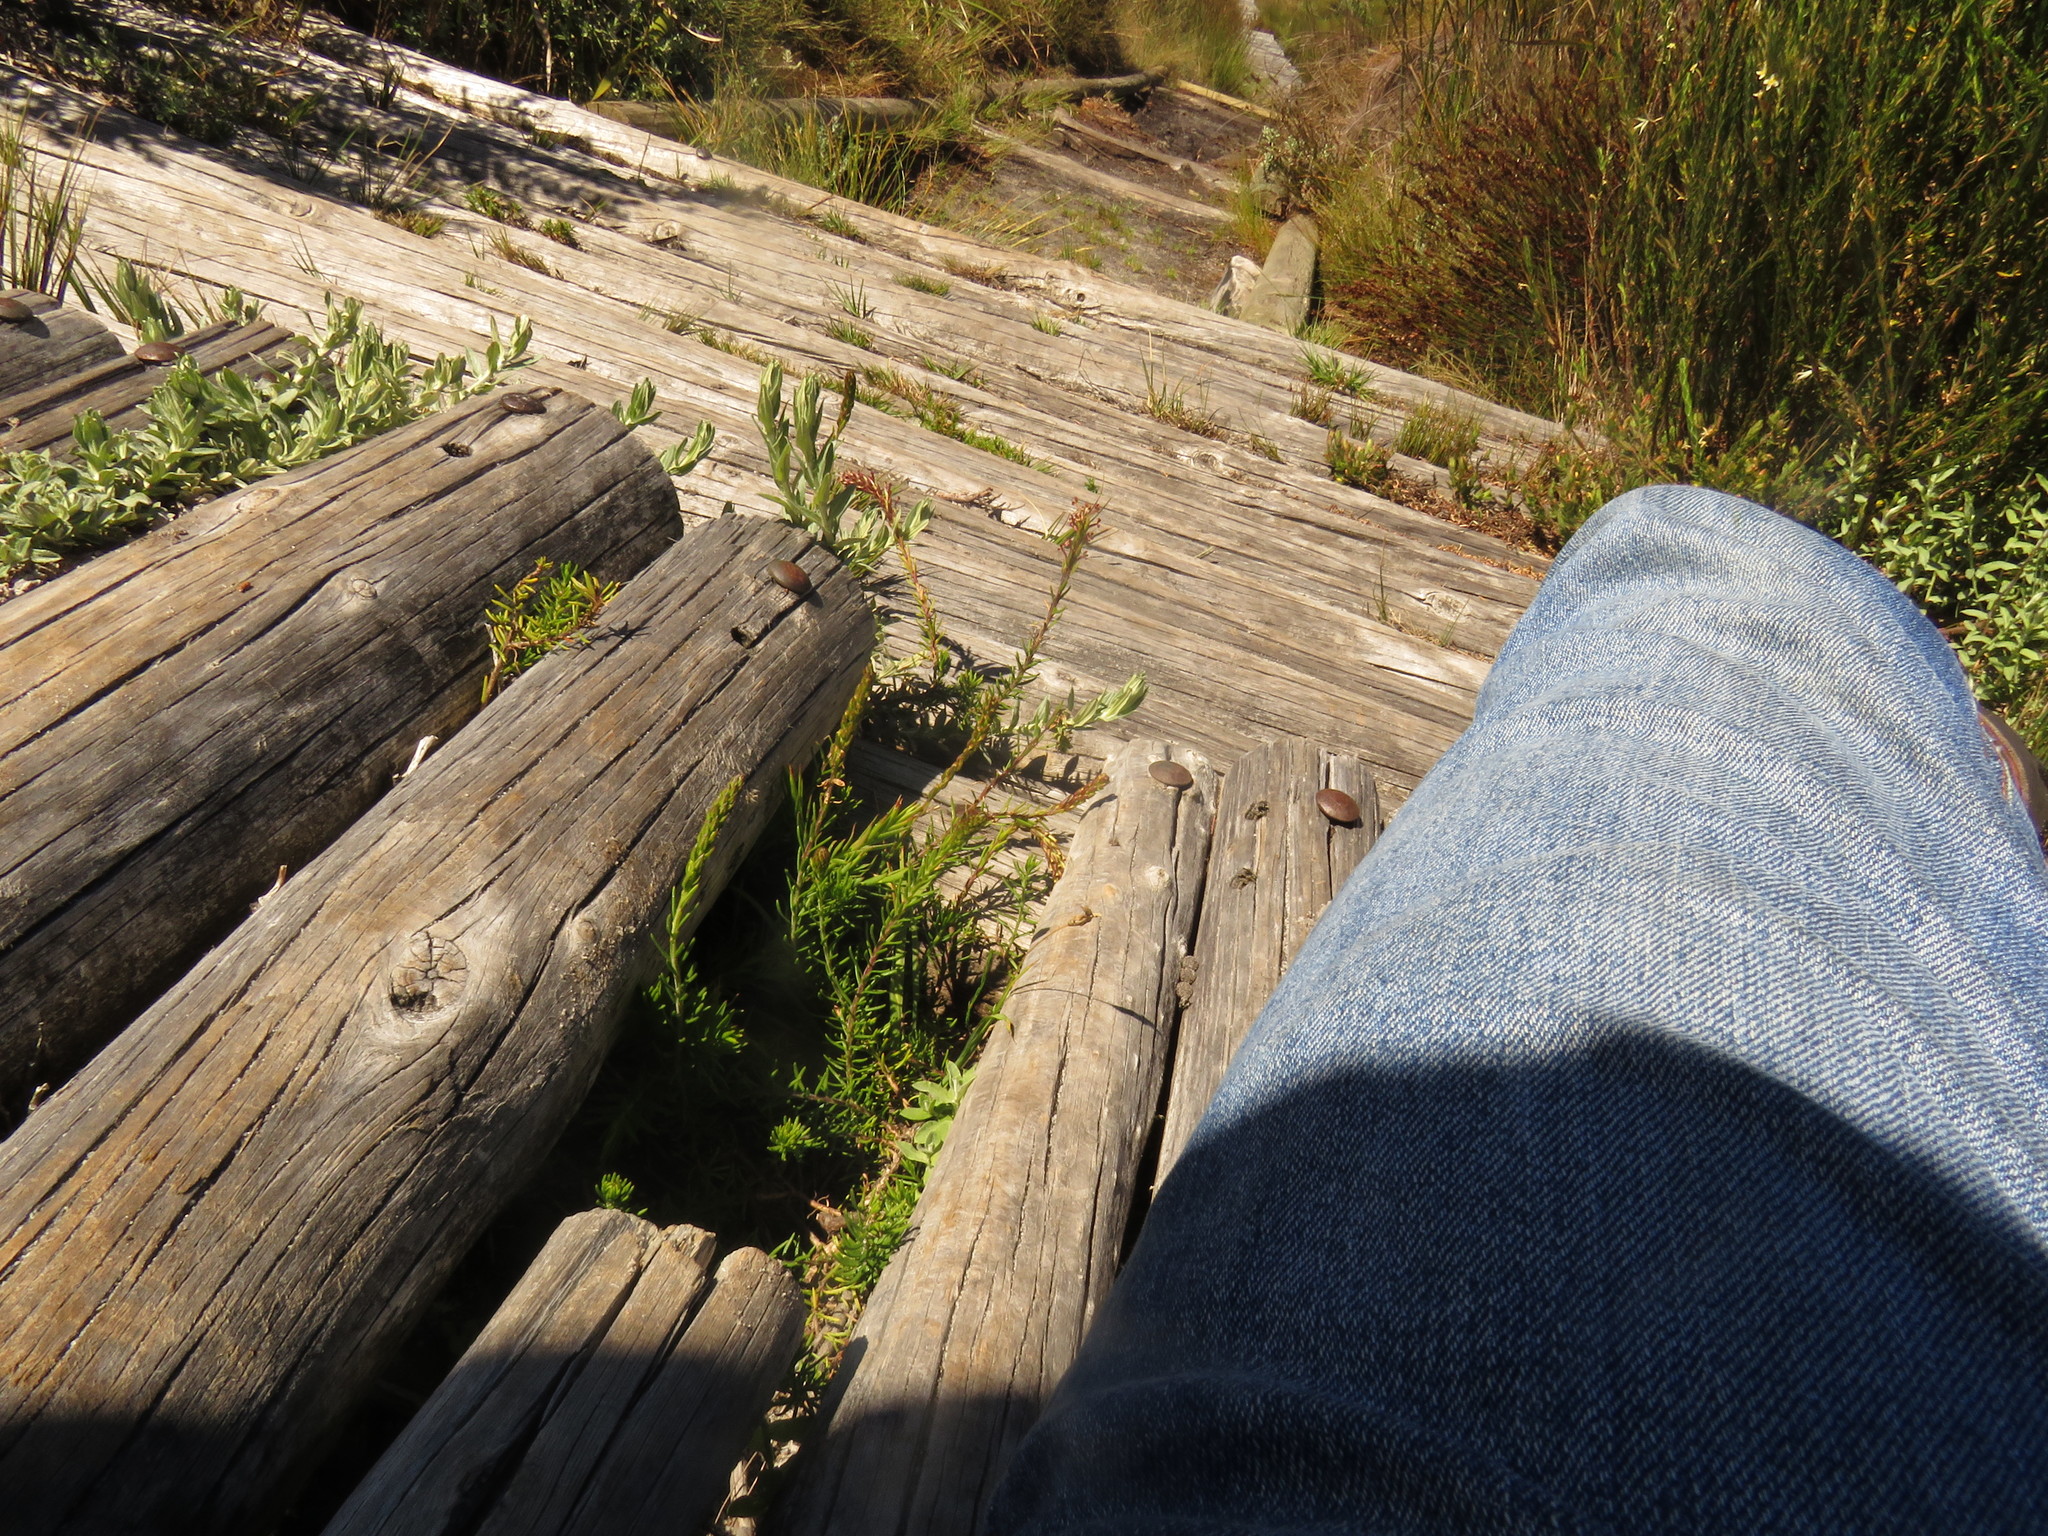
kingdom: Plantae
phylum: Tracheophyta
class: Magnoliopsida
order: Lamiales
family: Scrophulariaceae
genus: Microdon
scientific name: Microdon dubius
